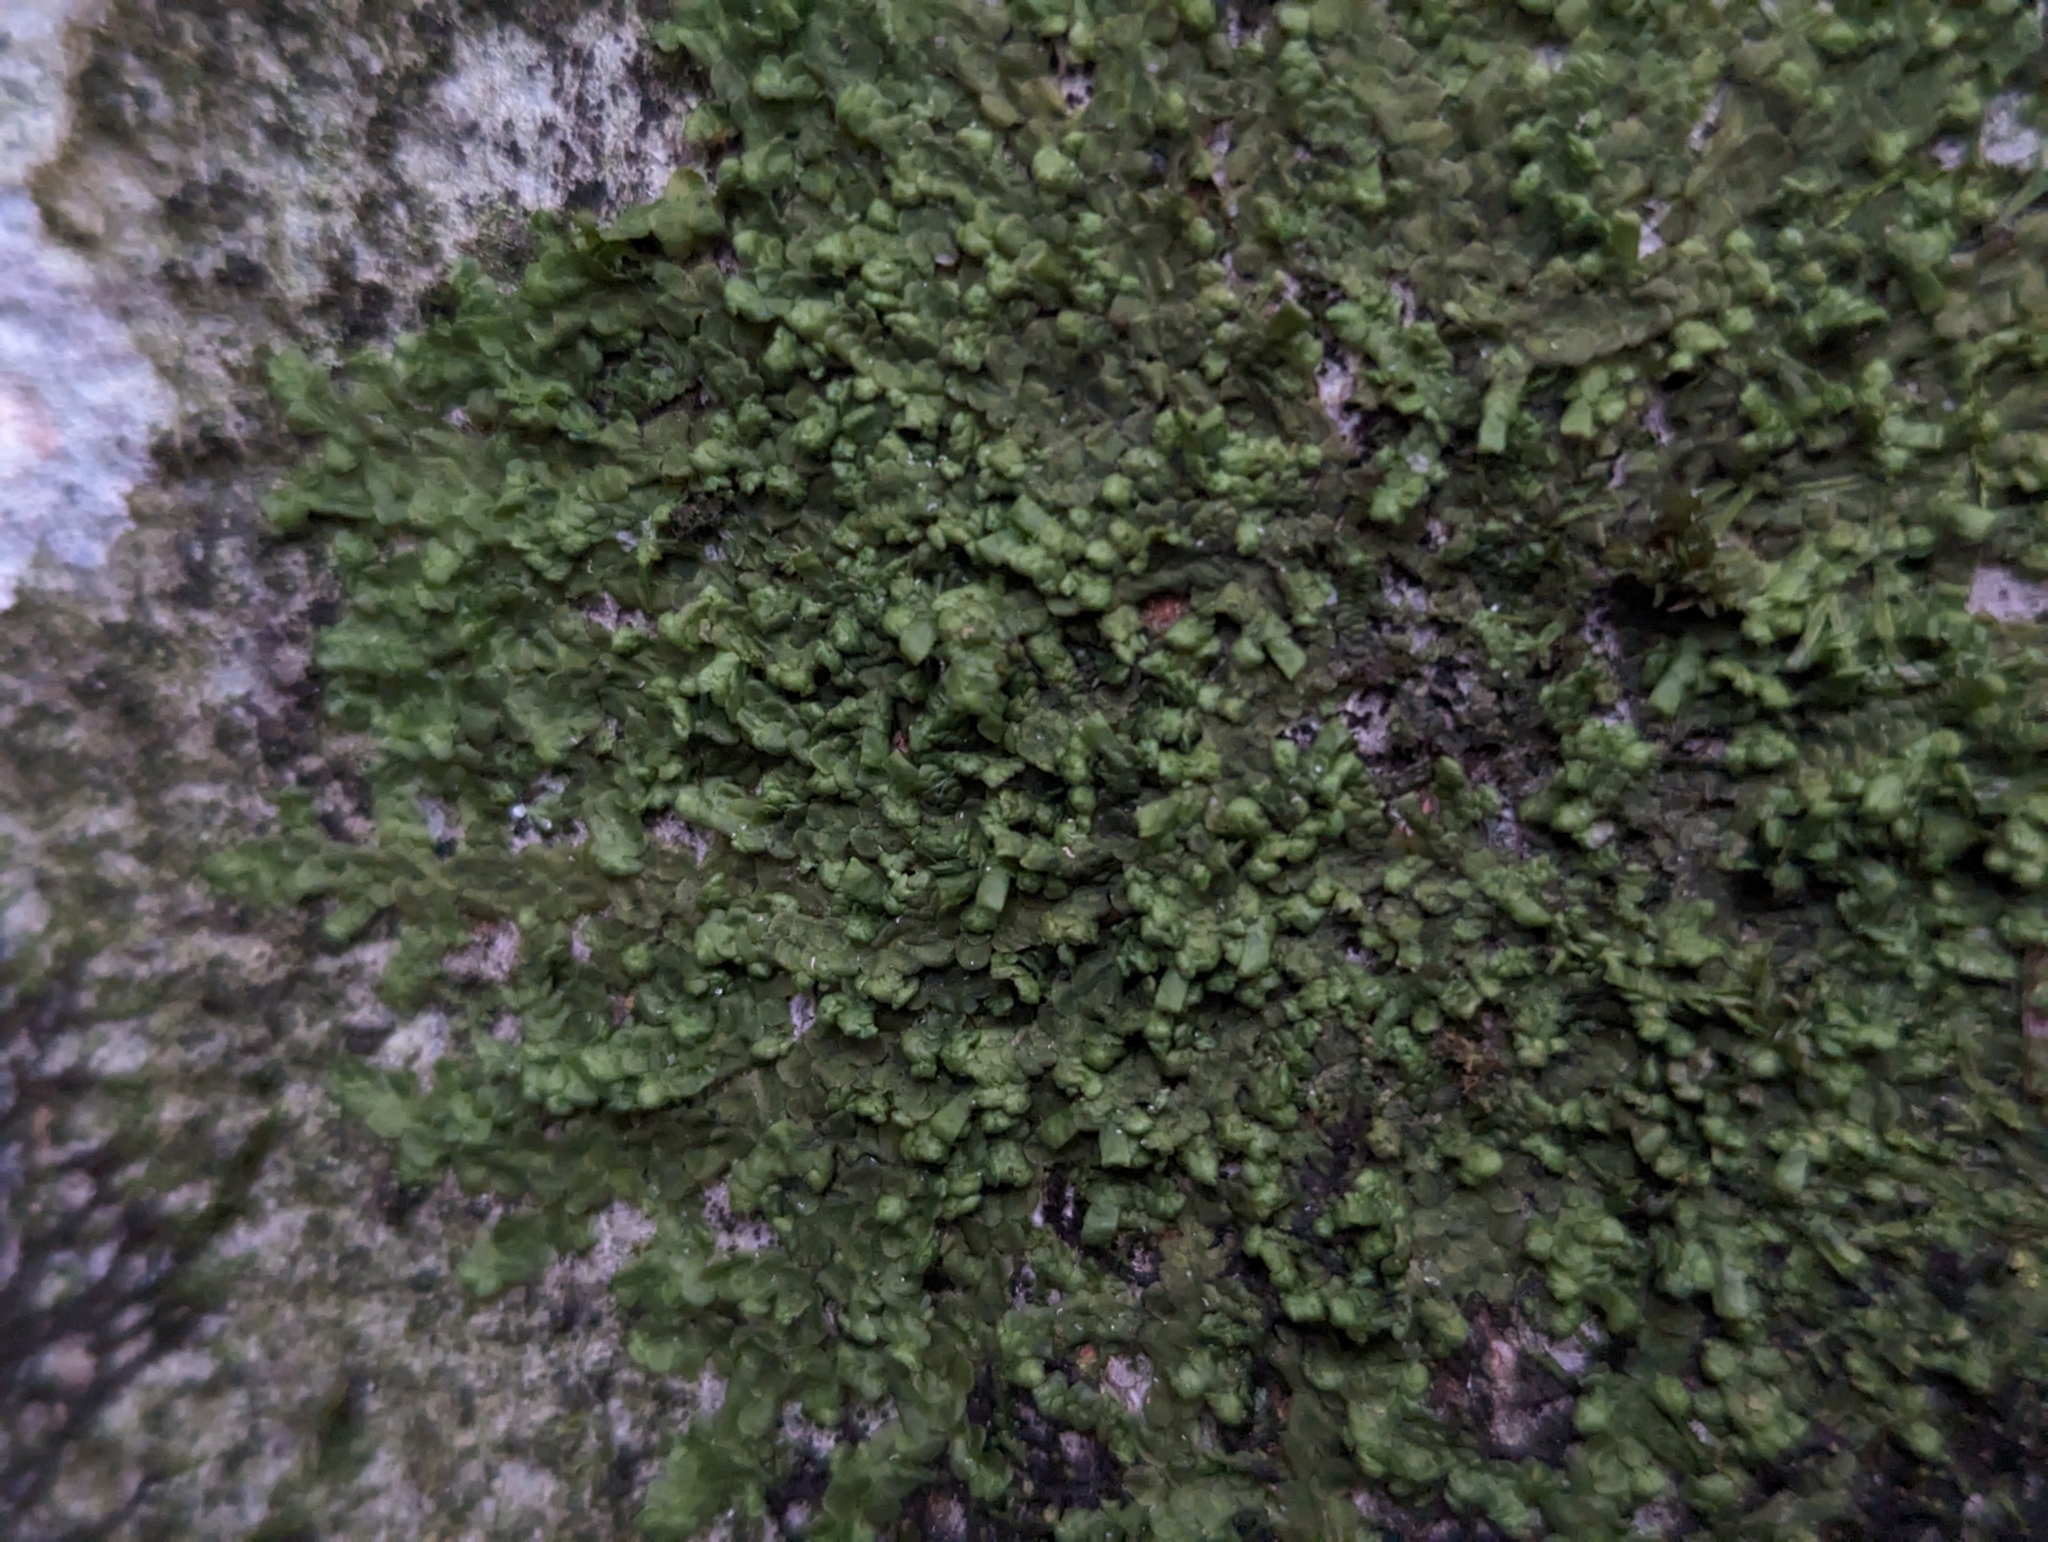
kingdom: Plantae
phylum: Marchantiophyta
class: Jungermanniopsida
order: Porellales
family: Radulaceae
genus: Radula
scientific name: Radula complanata
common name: Flat-leaved scalewort
